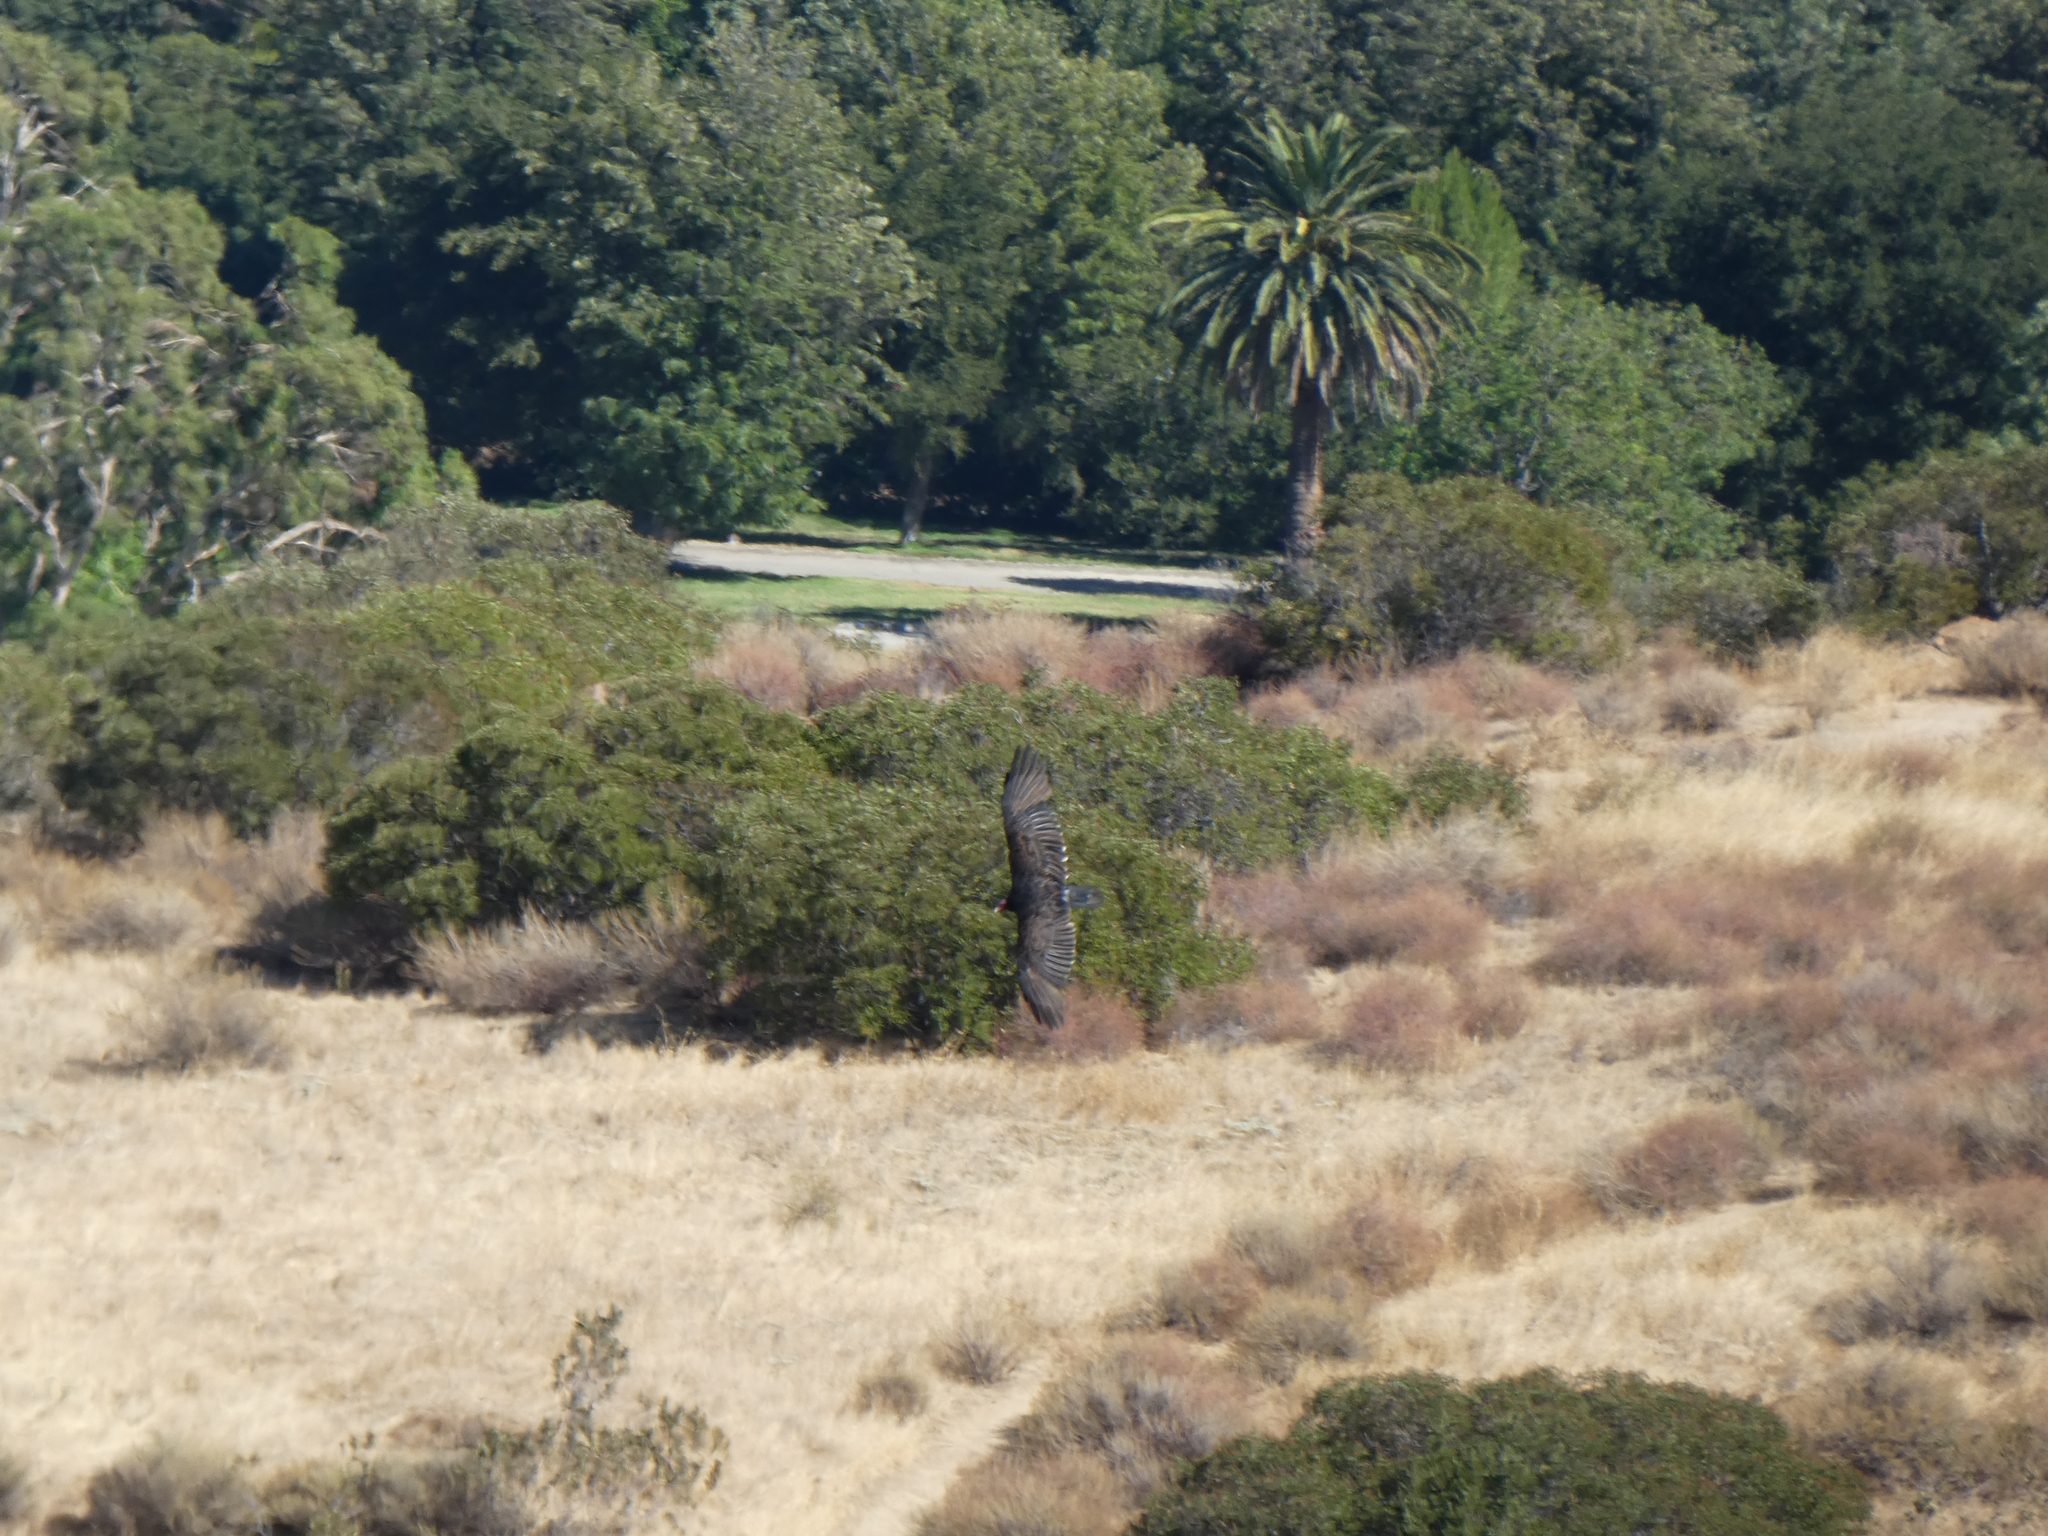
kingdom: Animalia
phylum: Chordata
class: Aves
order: Accipitriformes
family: Cathartidae
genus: Cathartes
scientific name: Cathartes aura
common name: Turkey vulture
